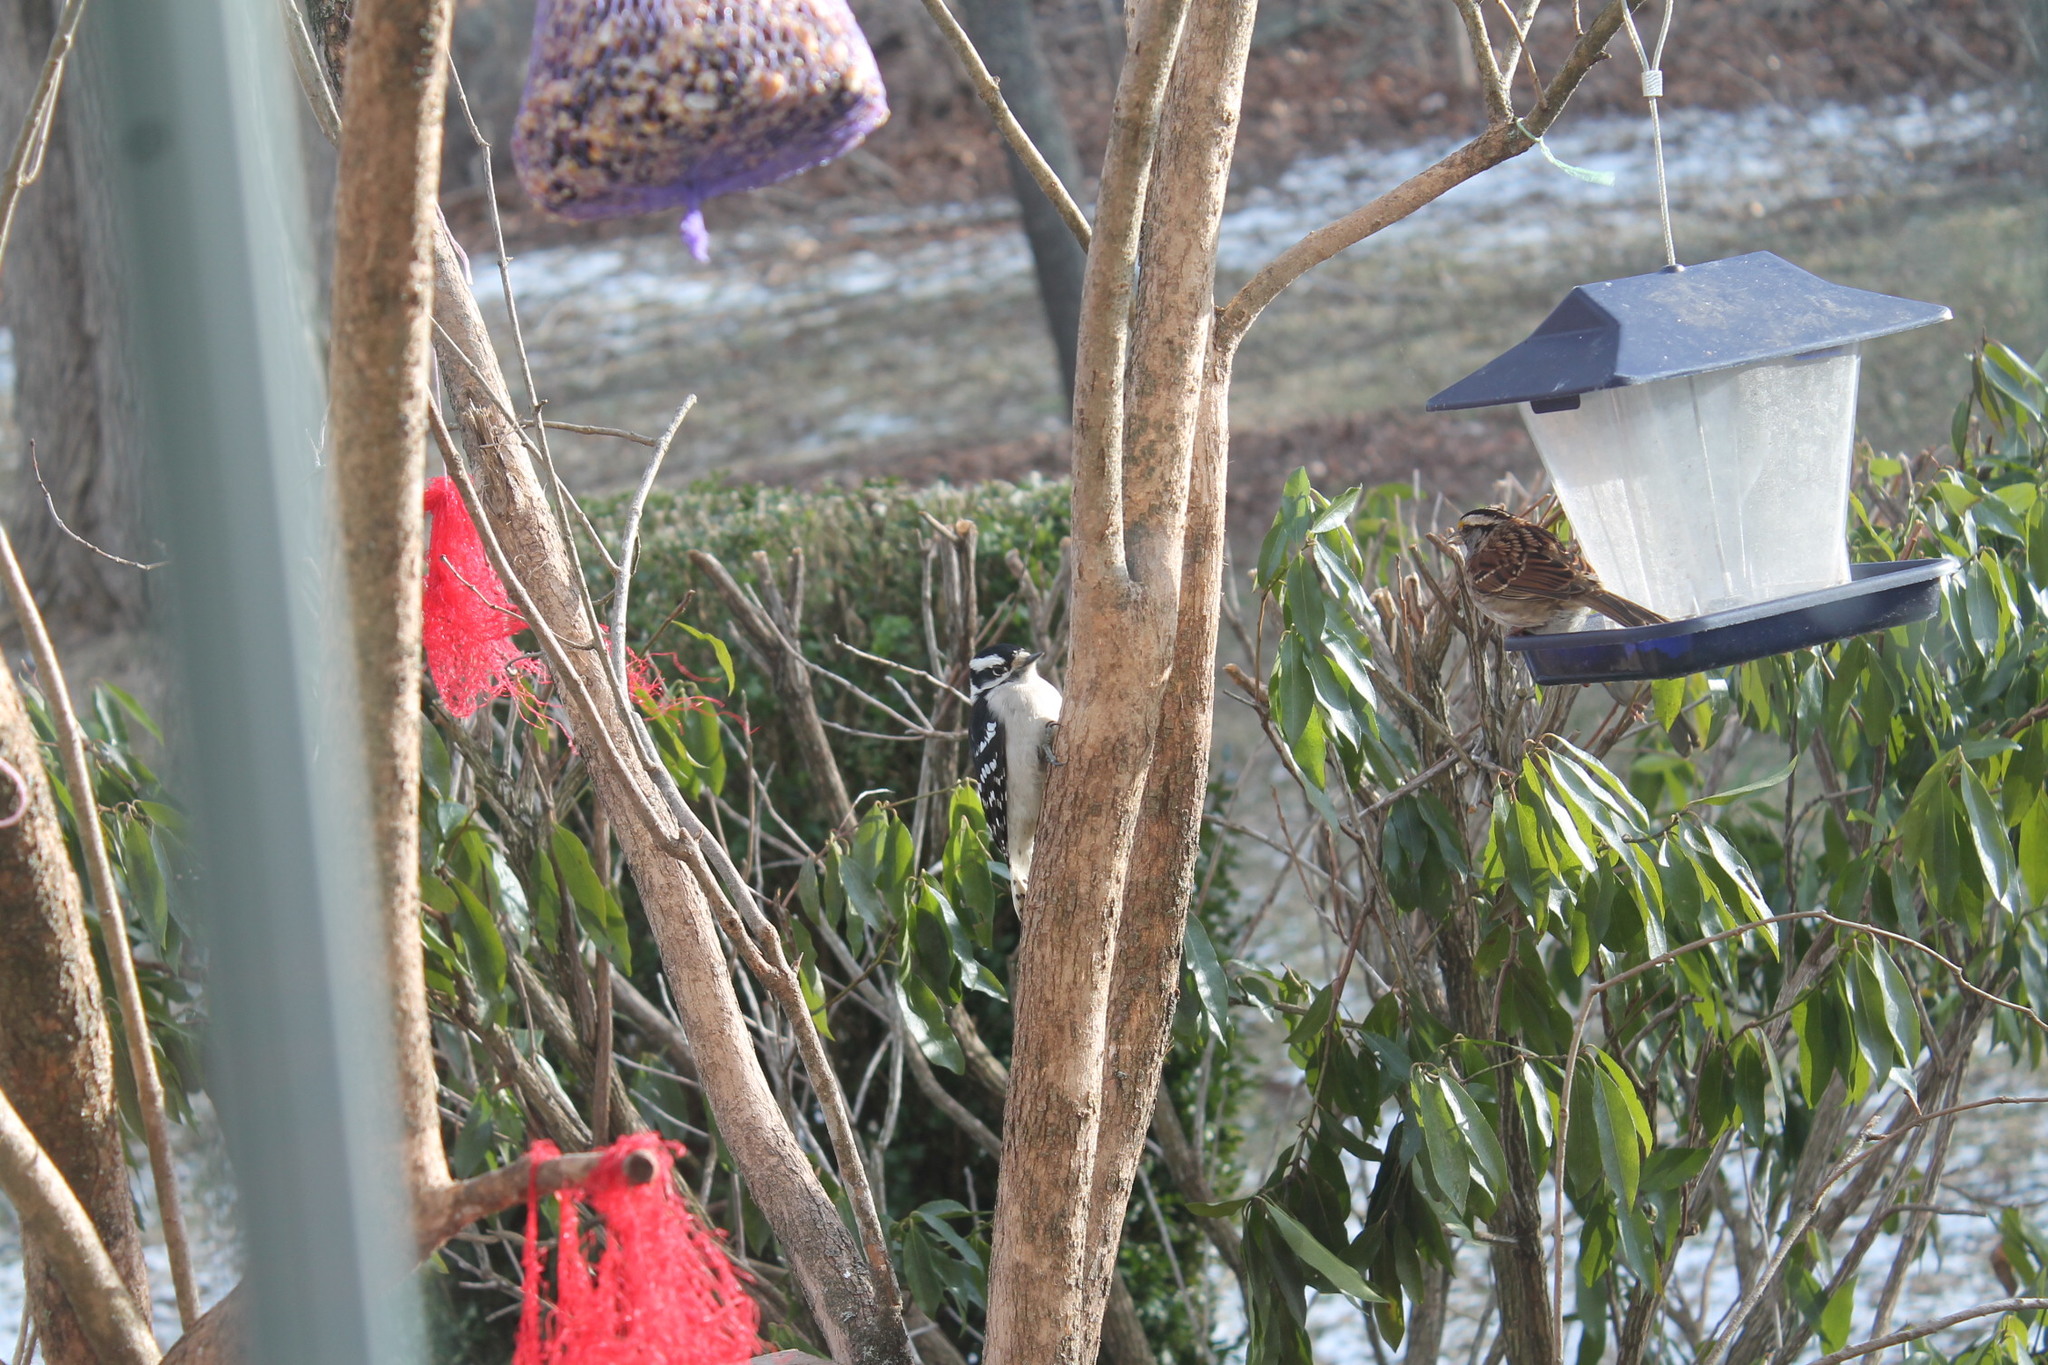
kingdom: Animalia
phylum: Chordata
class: Aves
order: Piciformes
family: Picidae
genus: Dryobates
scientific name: Dryobates pubescens
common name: Downy woodpecker
